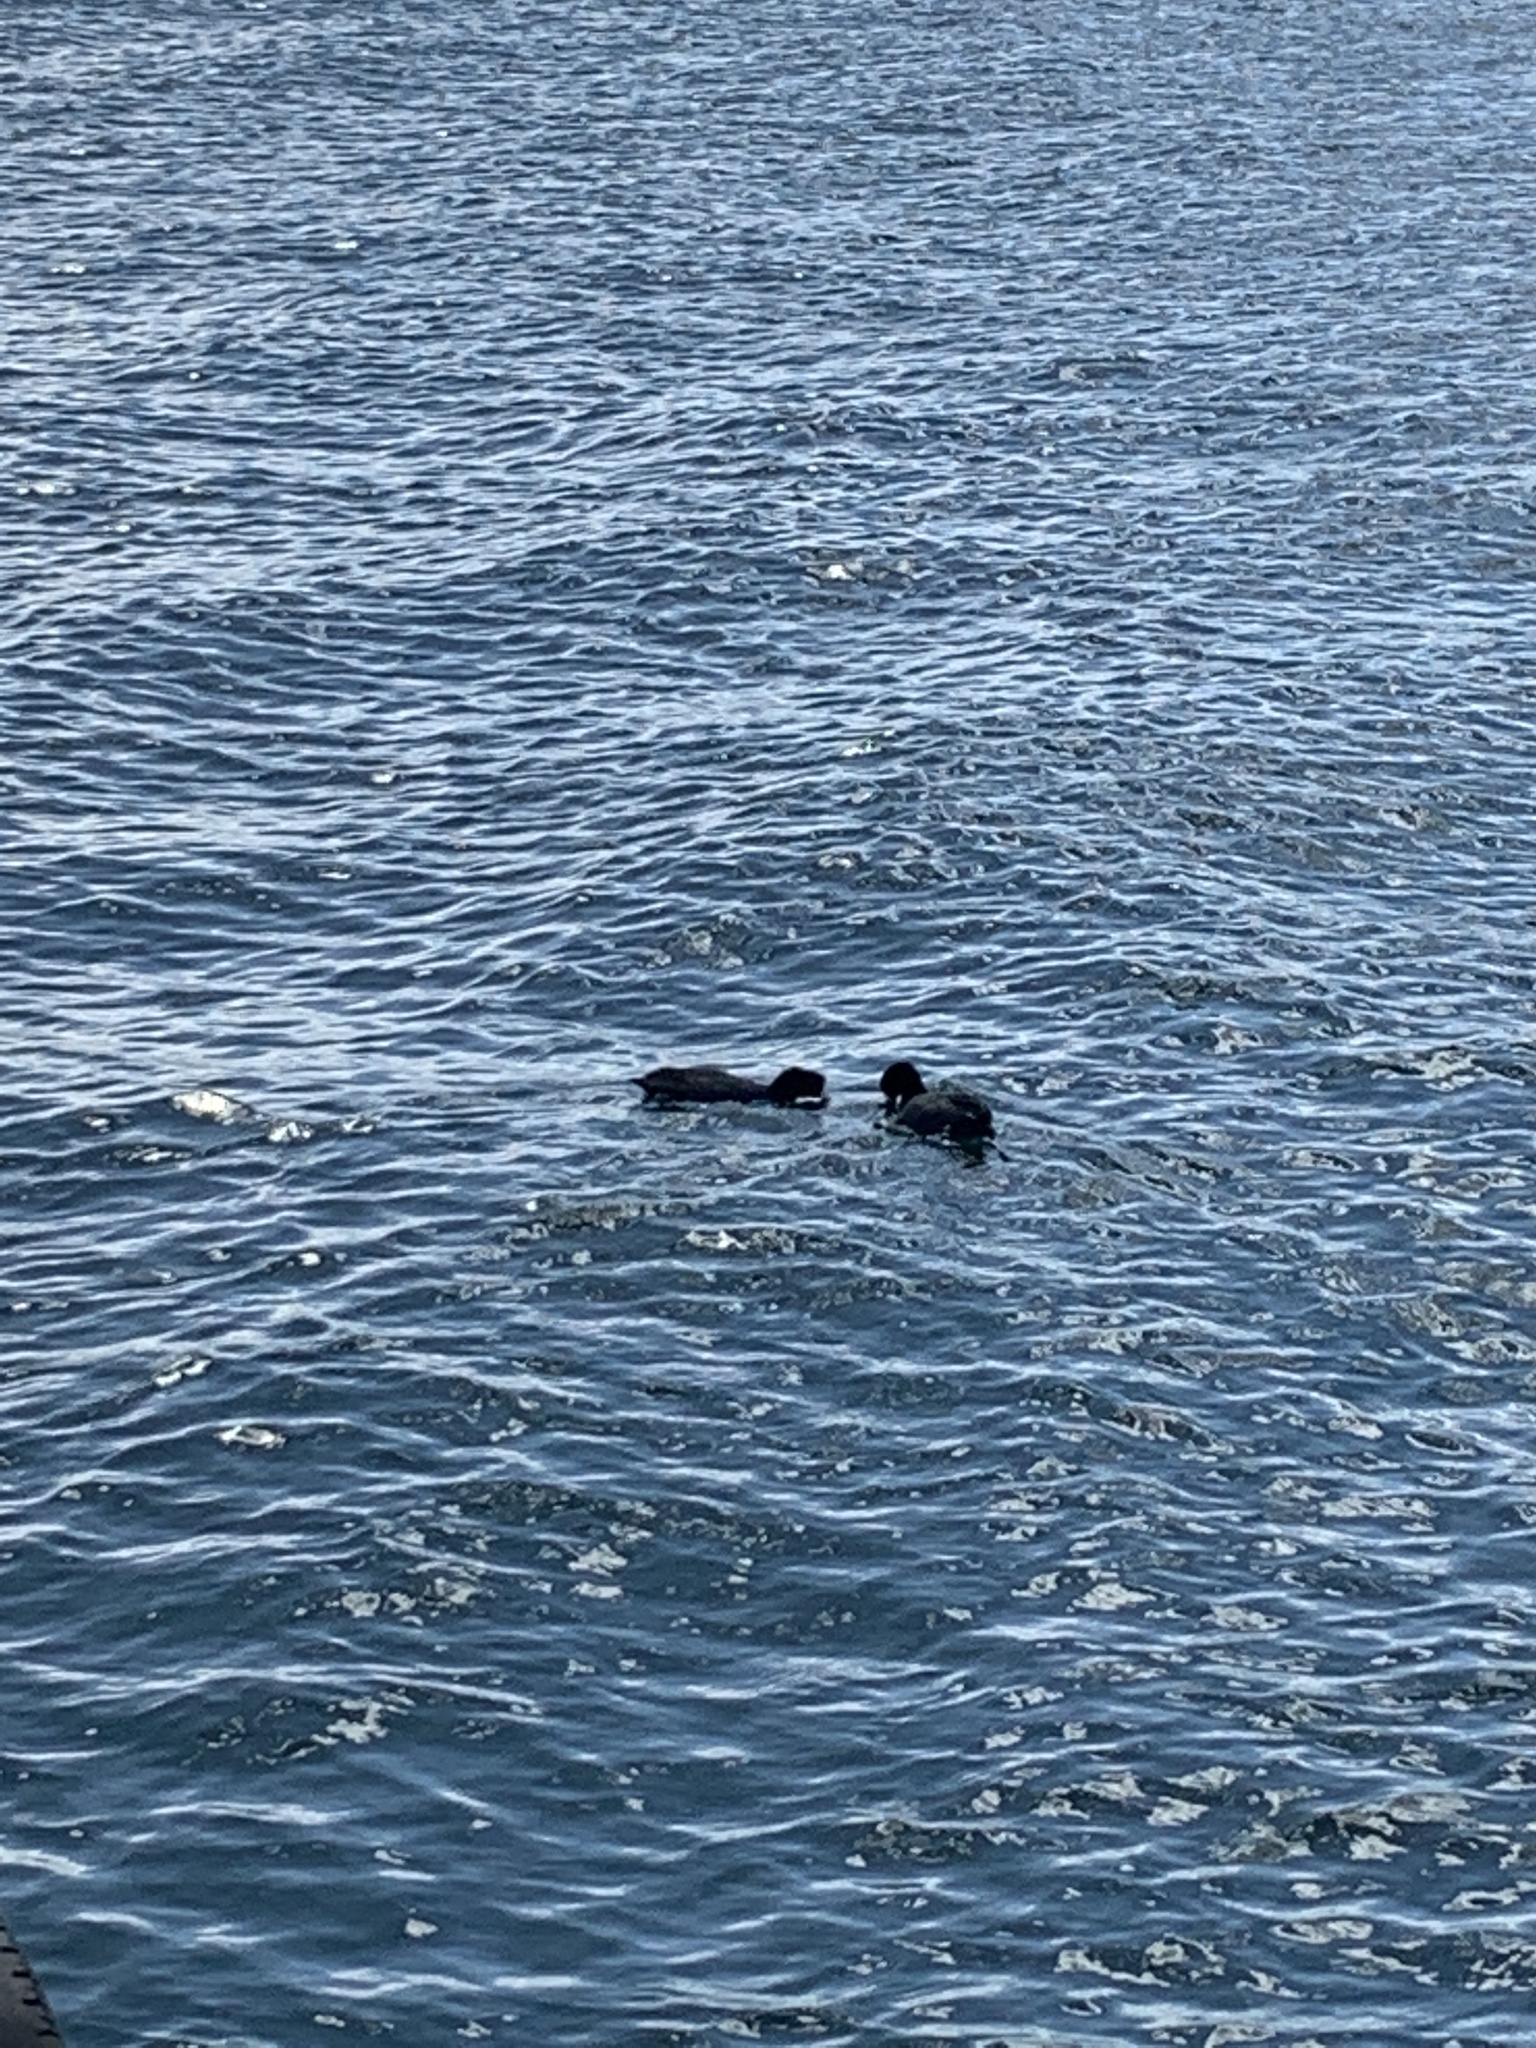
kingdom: Animalia
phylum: Chordata
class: Aves
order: Gruiformes
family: Rallidae
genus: Fulica
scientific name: Fulica americana
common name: American coot
